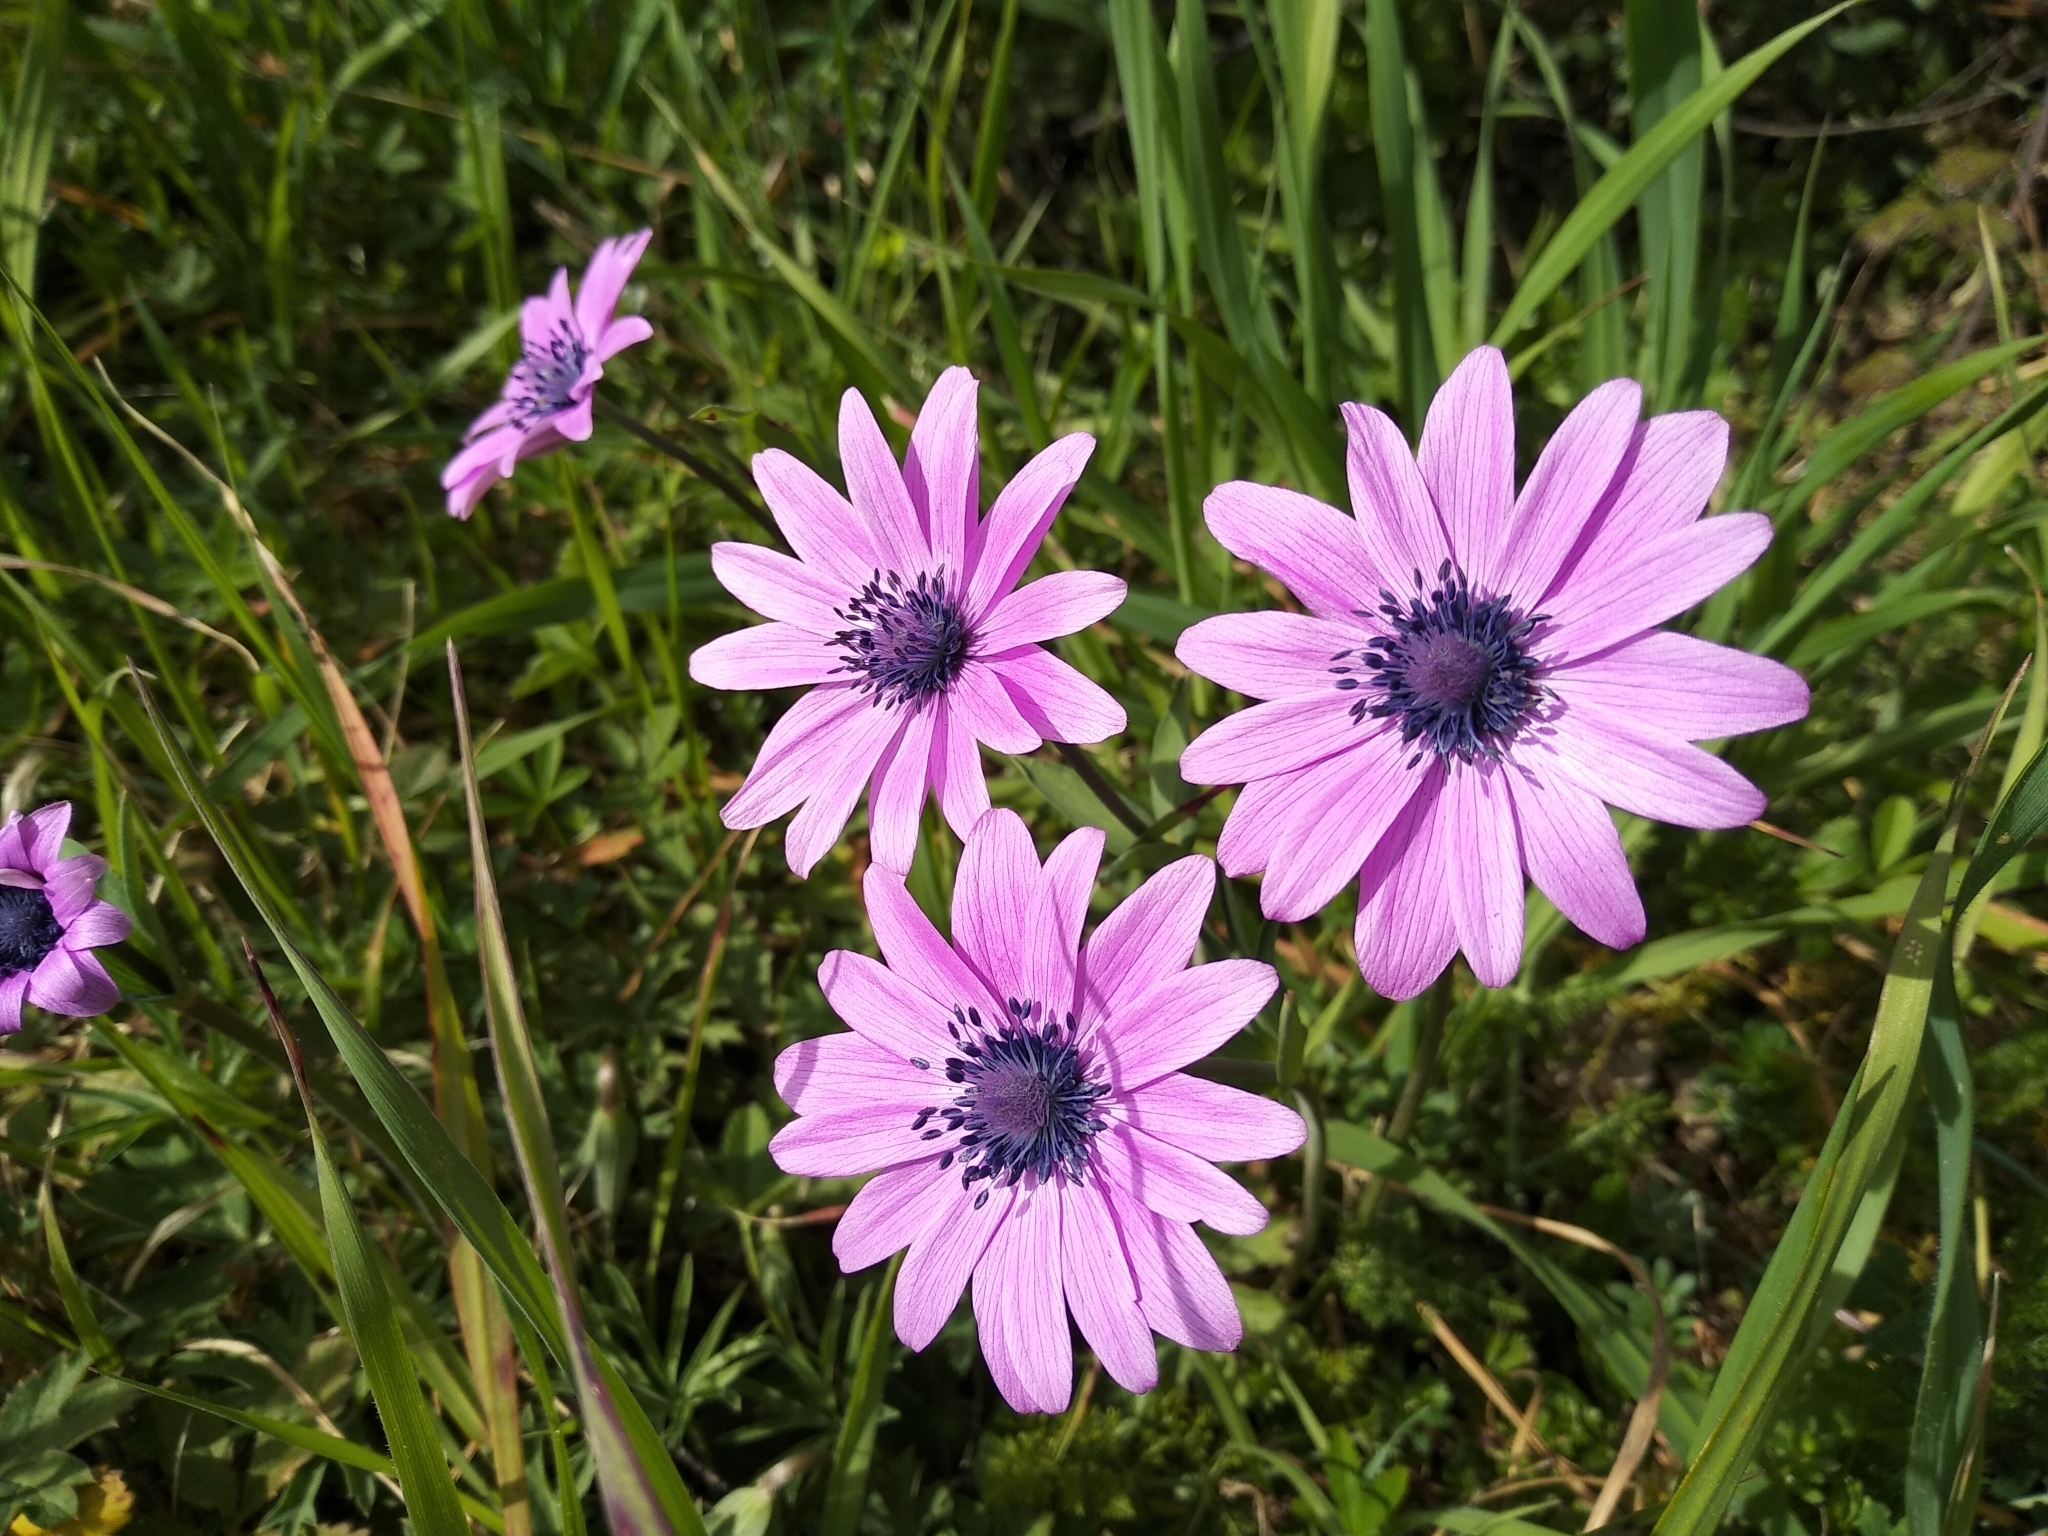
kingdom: Plantae
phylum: Tracheophyta
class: Magnoliopsida
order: Ranunculales
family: Ranunculaceae
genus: Anemone
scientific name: Anemone hortensis
